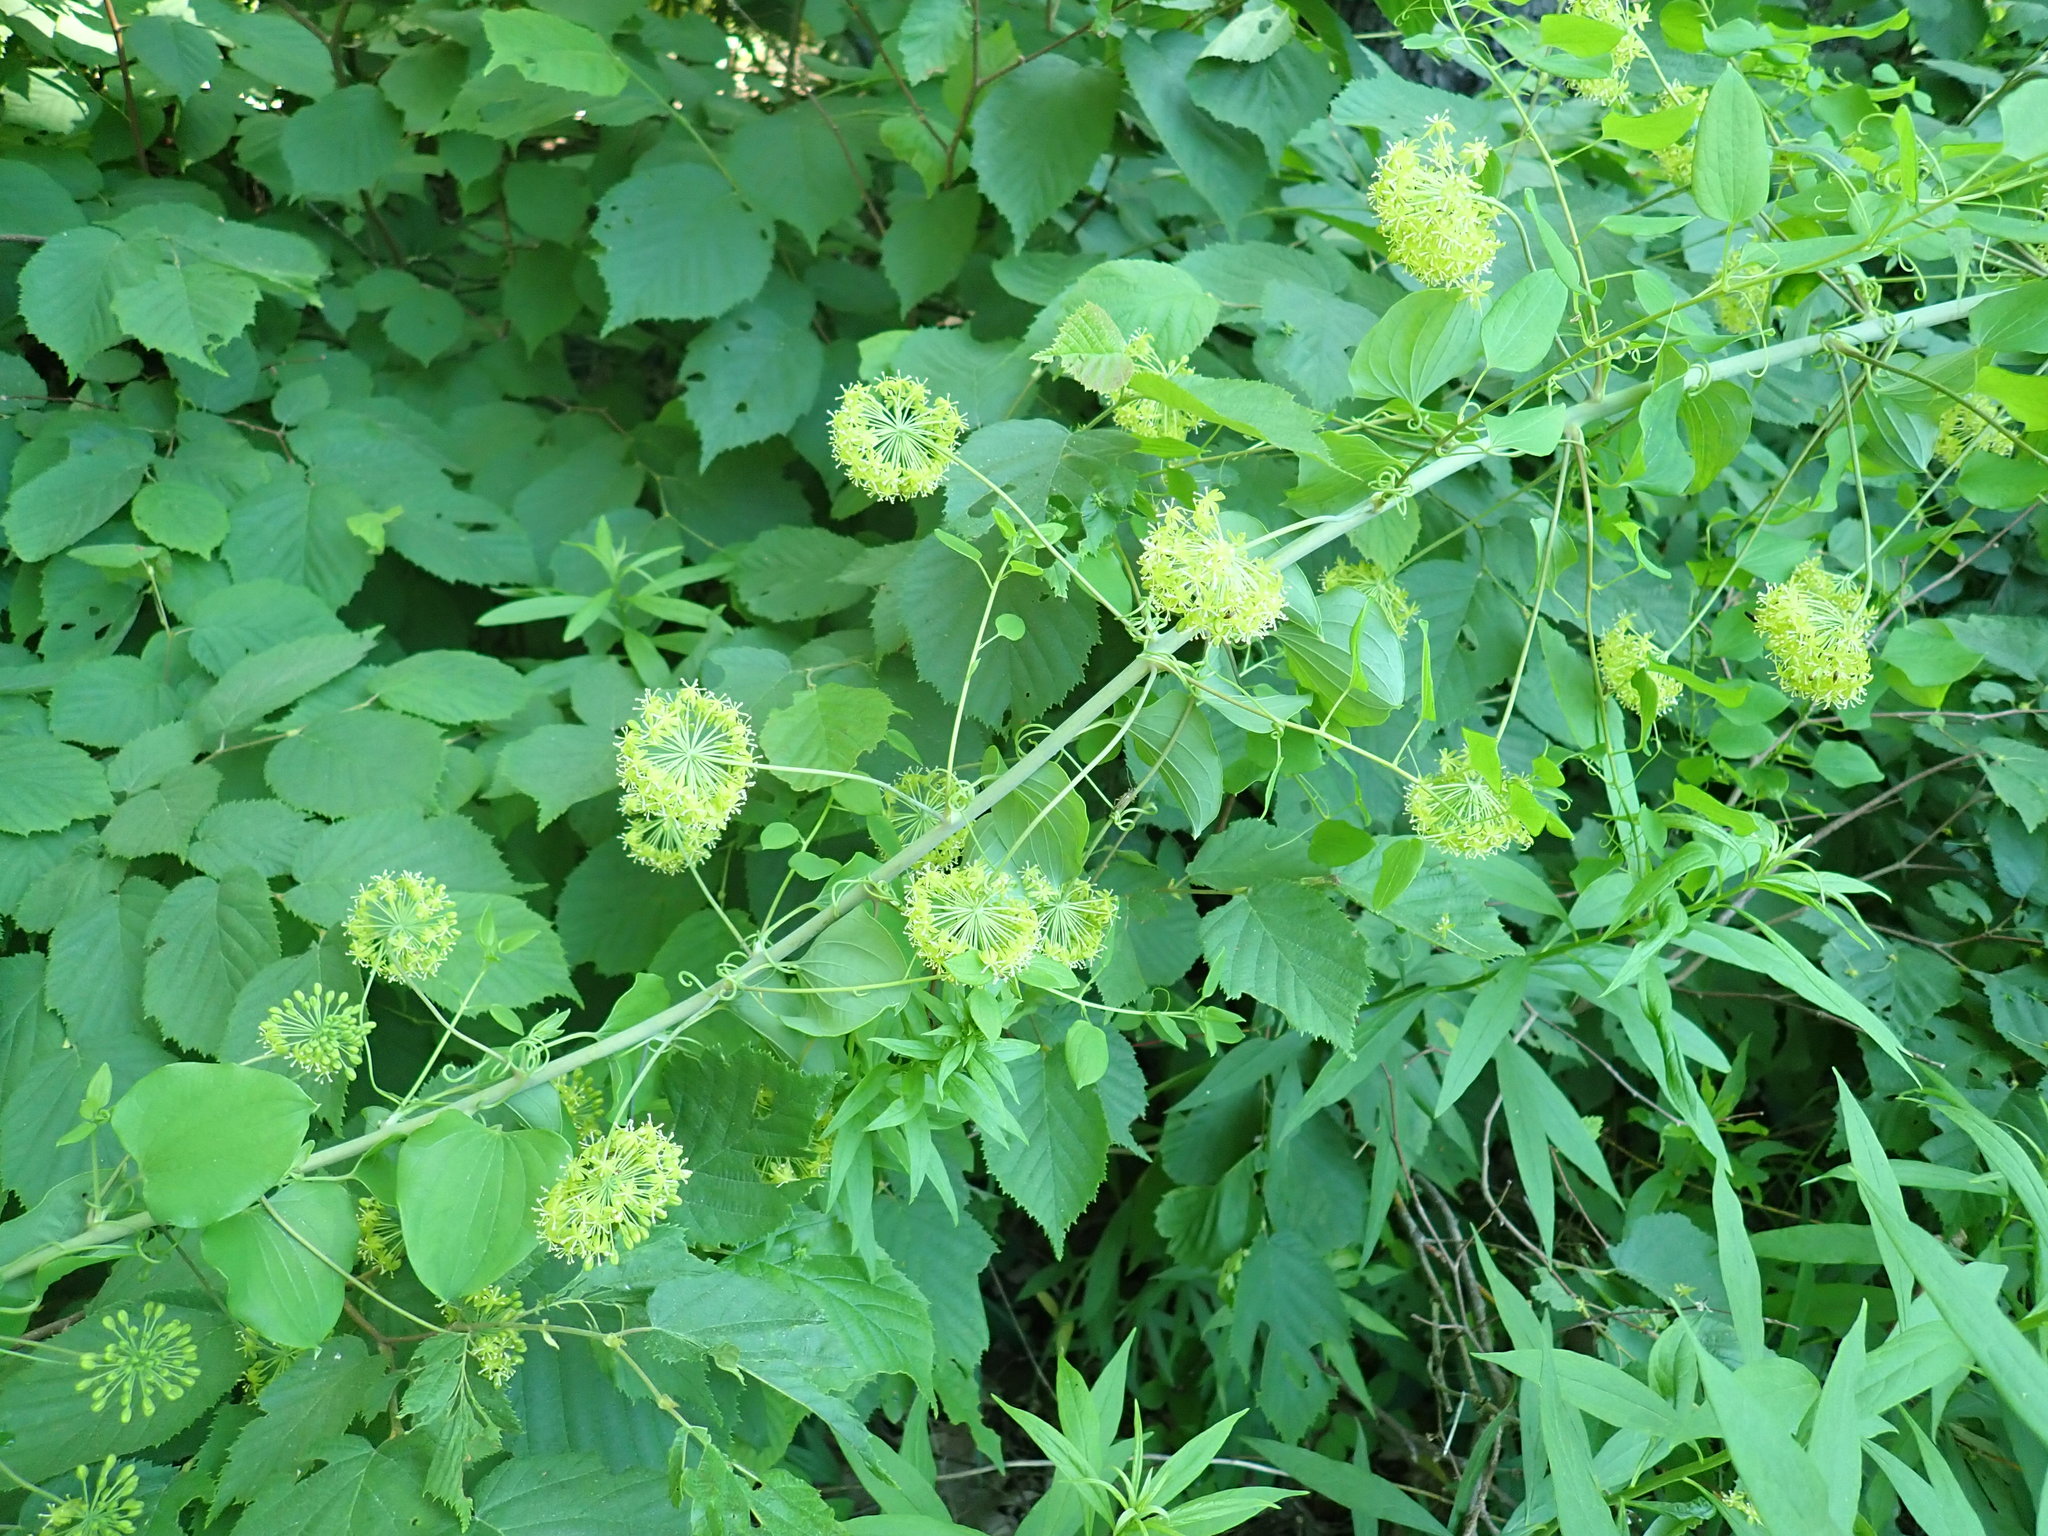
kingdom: Plantae
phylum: Tracheophyta
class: Liliopsida
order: Liliales
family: Smilacaceae
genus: Smilax
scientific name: Smilax herbacea
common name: Jacob's-ladder
